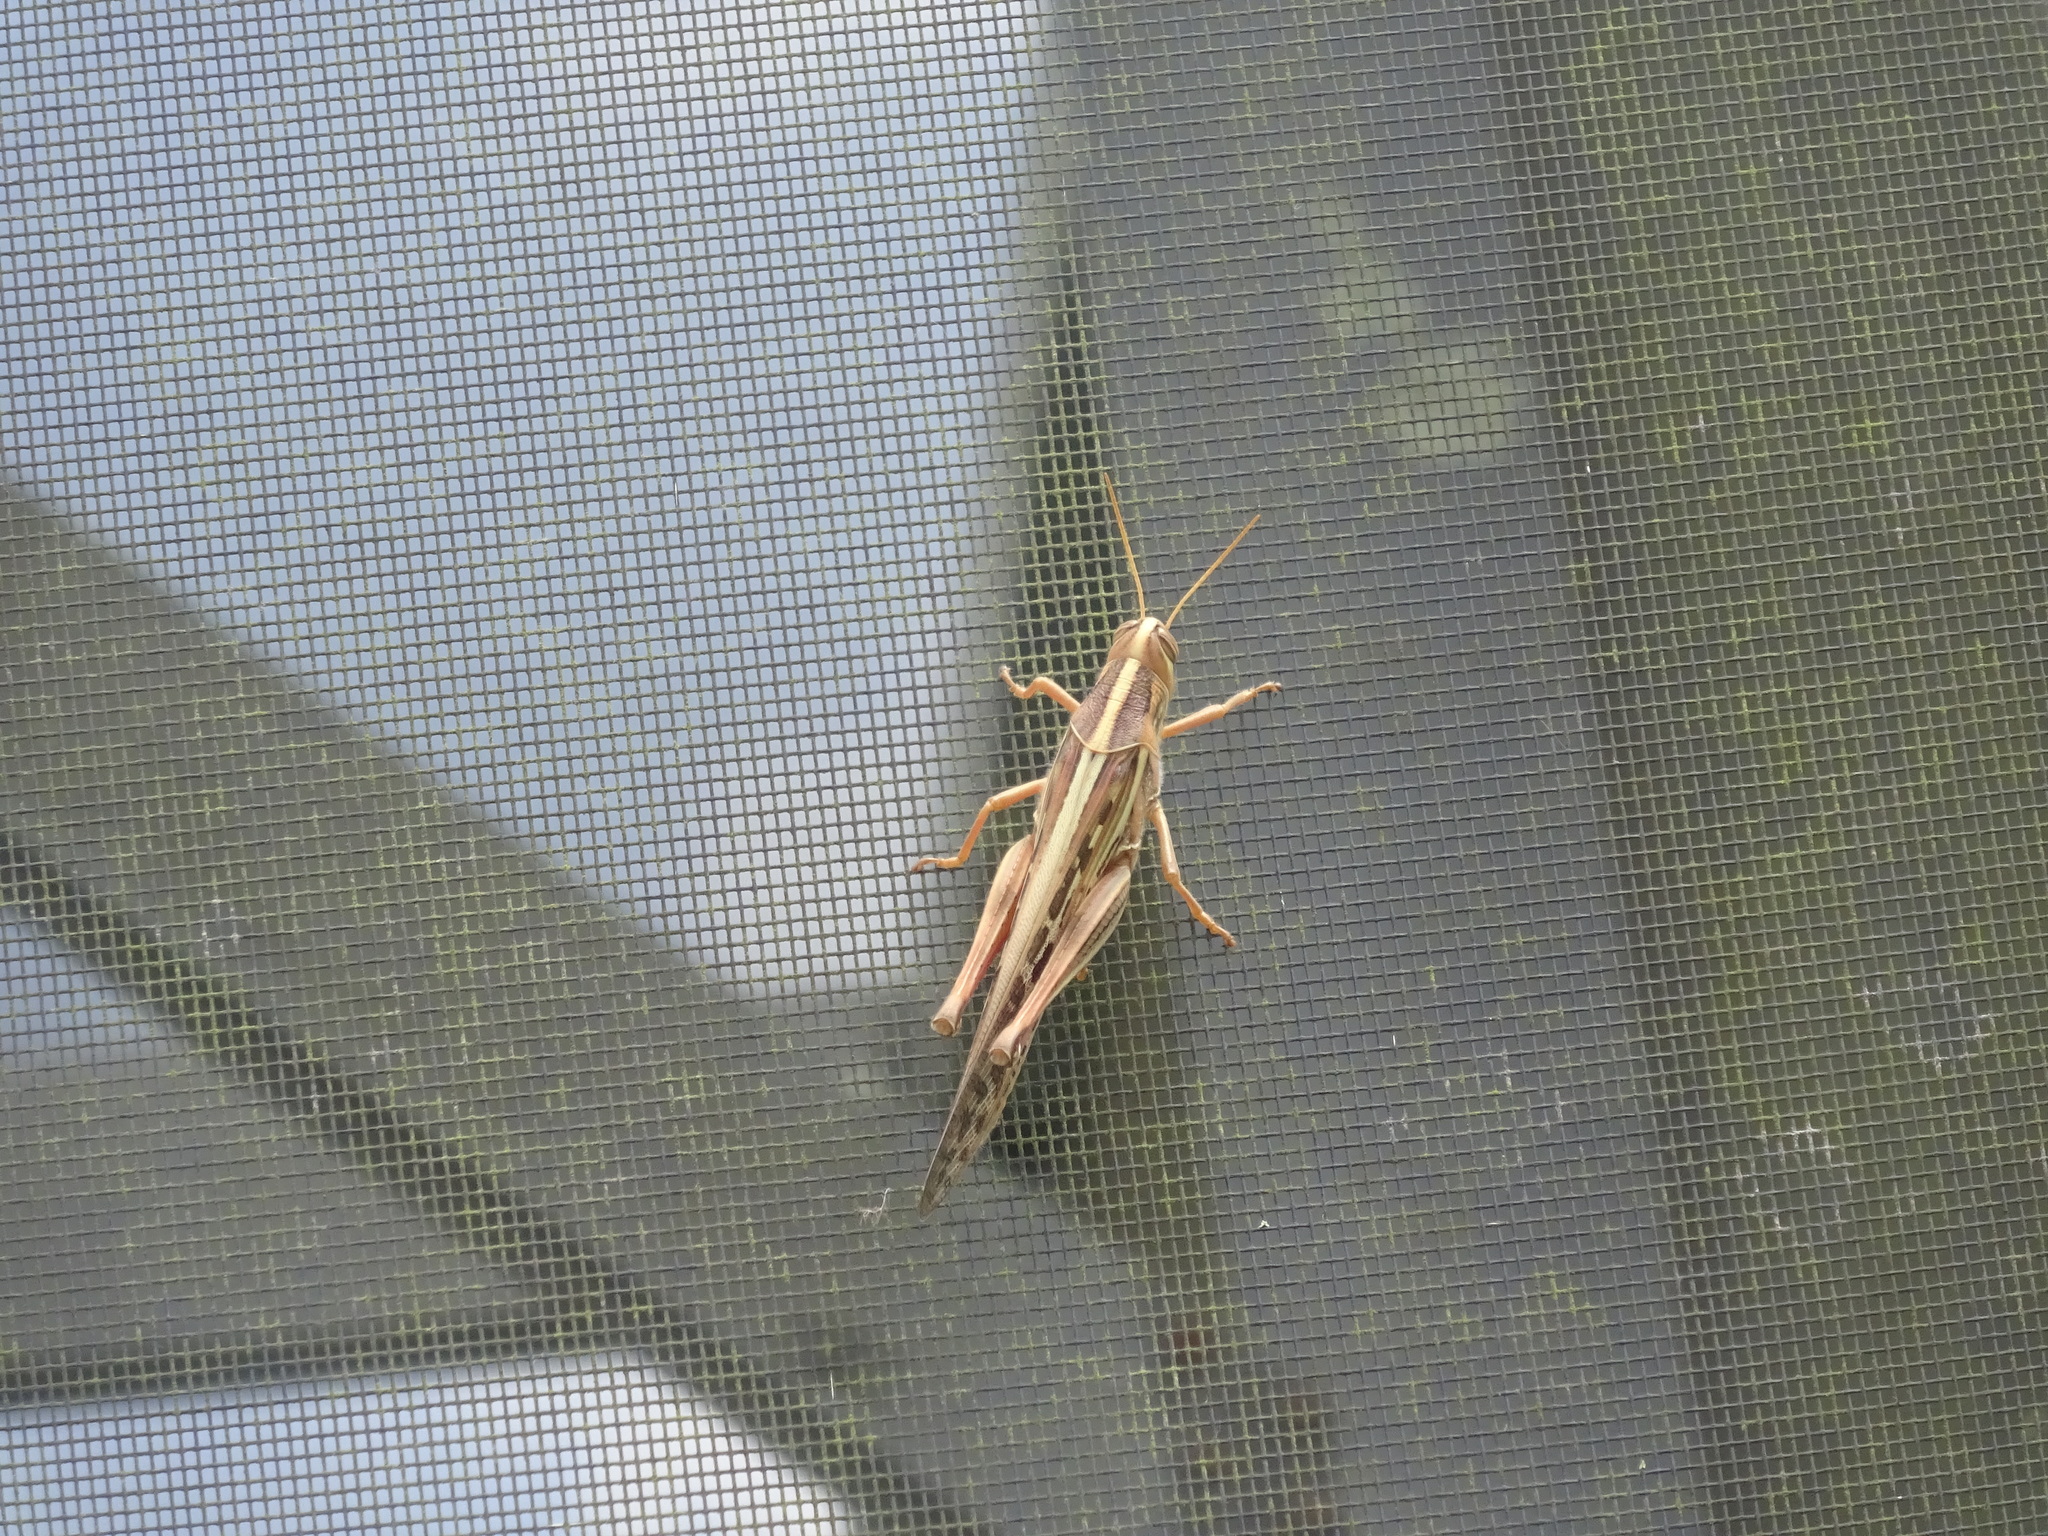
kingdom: Animalia
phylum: Arthropoda
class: Insecta
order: Orthoptera
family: Acrididae
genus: Schistocerca
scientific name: Schistocerca americana
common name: American bird locust
